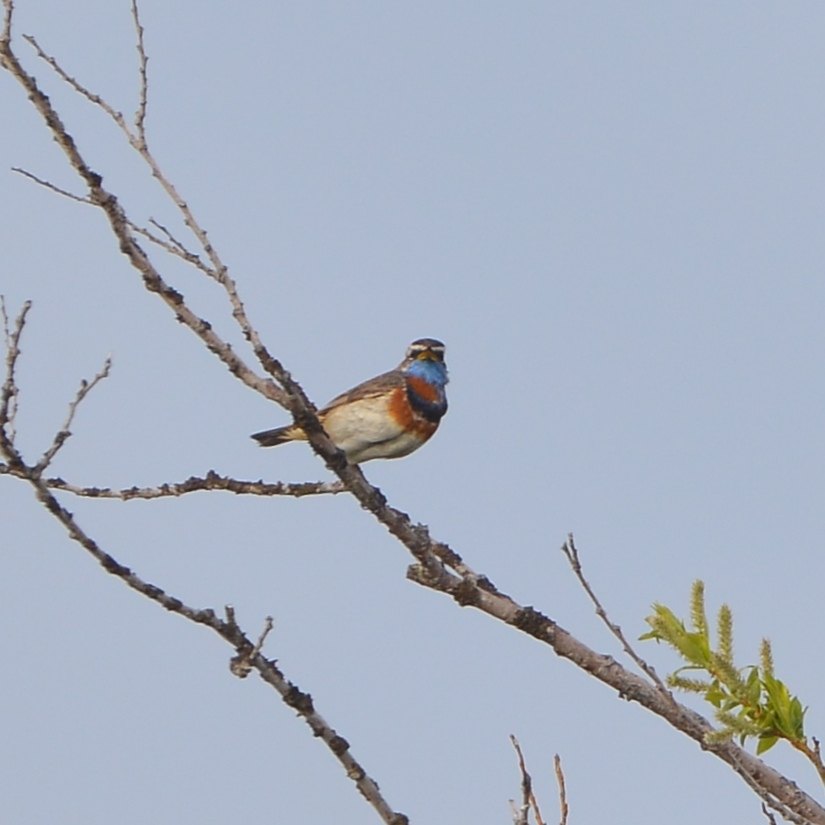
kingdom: Animalia
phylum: Chordata
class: Aves
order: Passeriformes
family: Muscicapidae
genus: Luscinia
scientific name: Luscinia svecica
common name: Bluethroat
